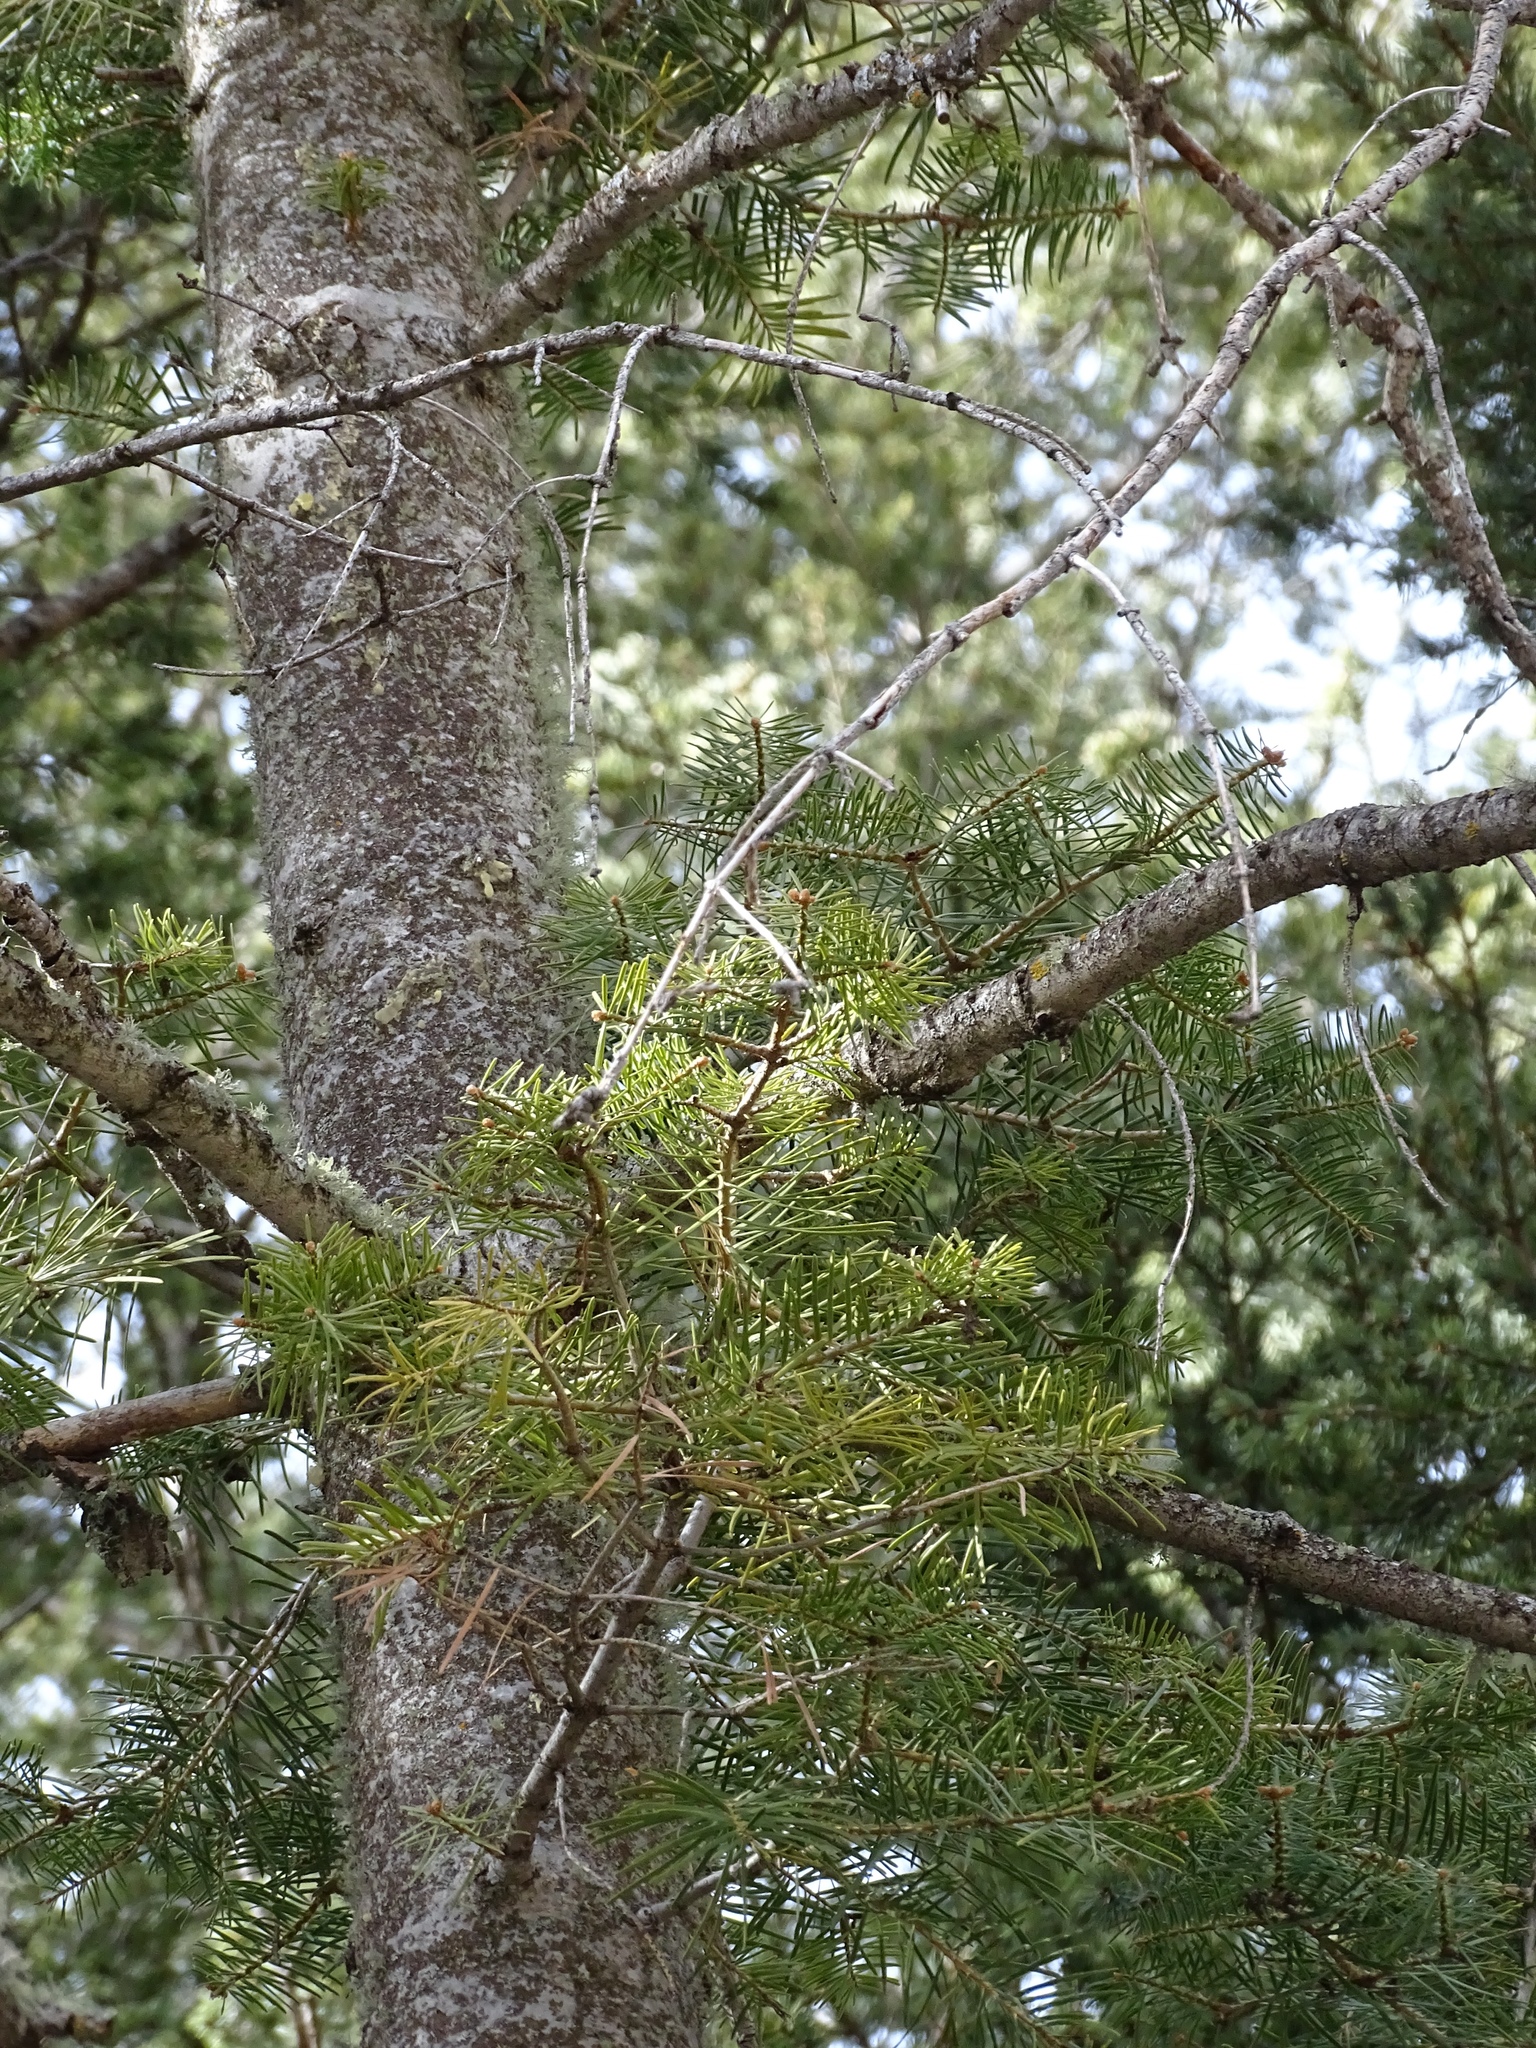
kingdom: Plantae
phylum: Tracheophyta
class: Pinopsida
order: Pinales
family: Pinaceae
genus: Abies
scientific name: Abies concolor
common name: Colorado fir
